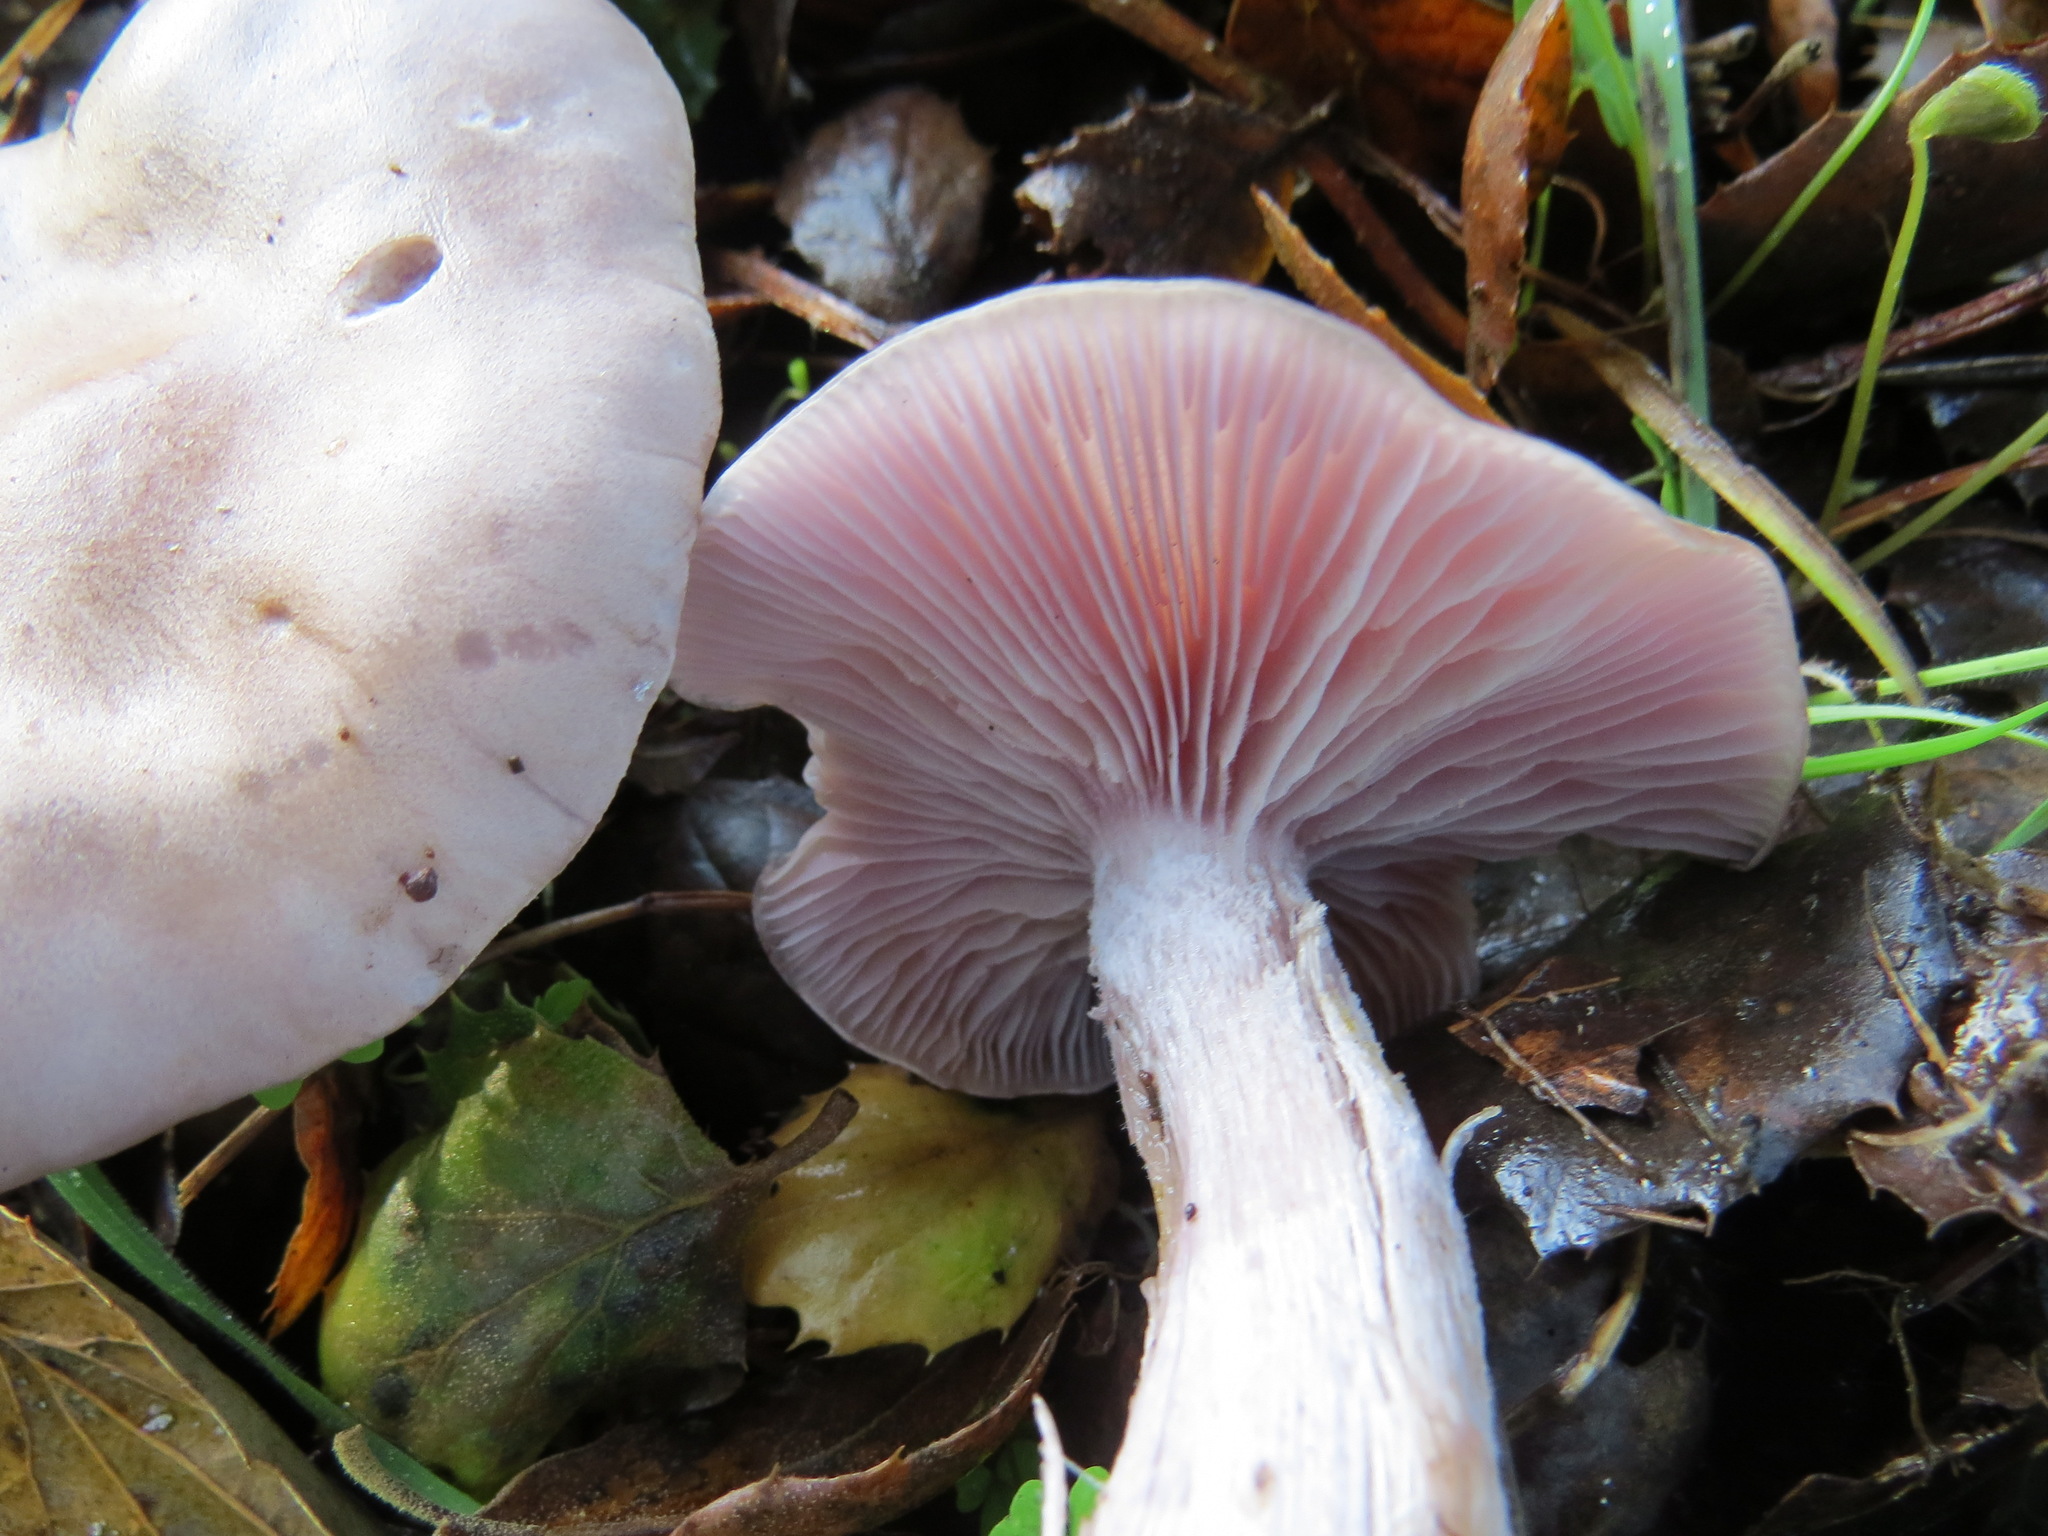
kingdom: Fungi
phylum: Basidiomycota
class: Agaricomycetes
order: Agaricales
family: Tricholomataceae
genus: Collybia
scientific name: Collybia
